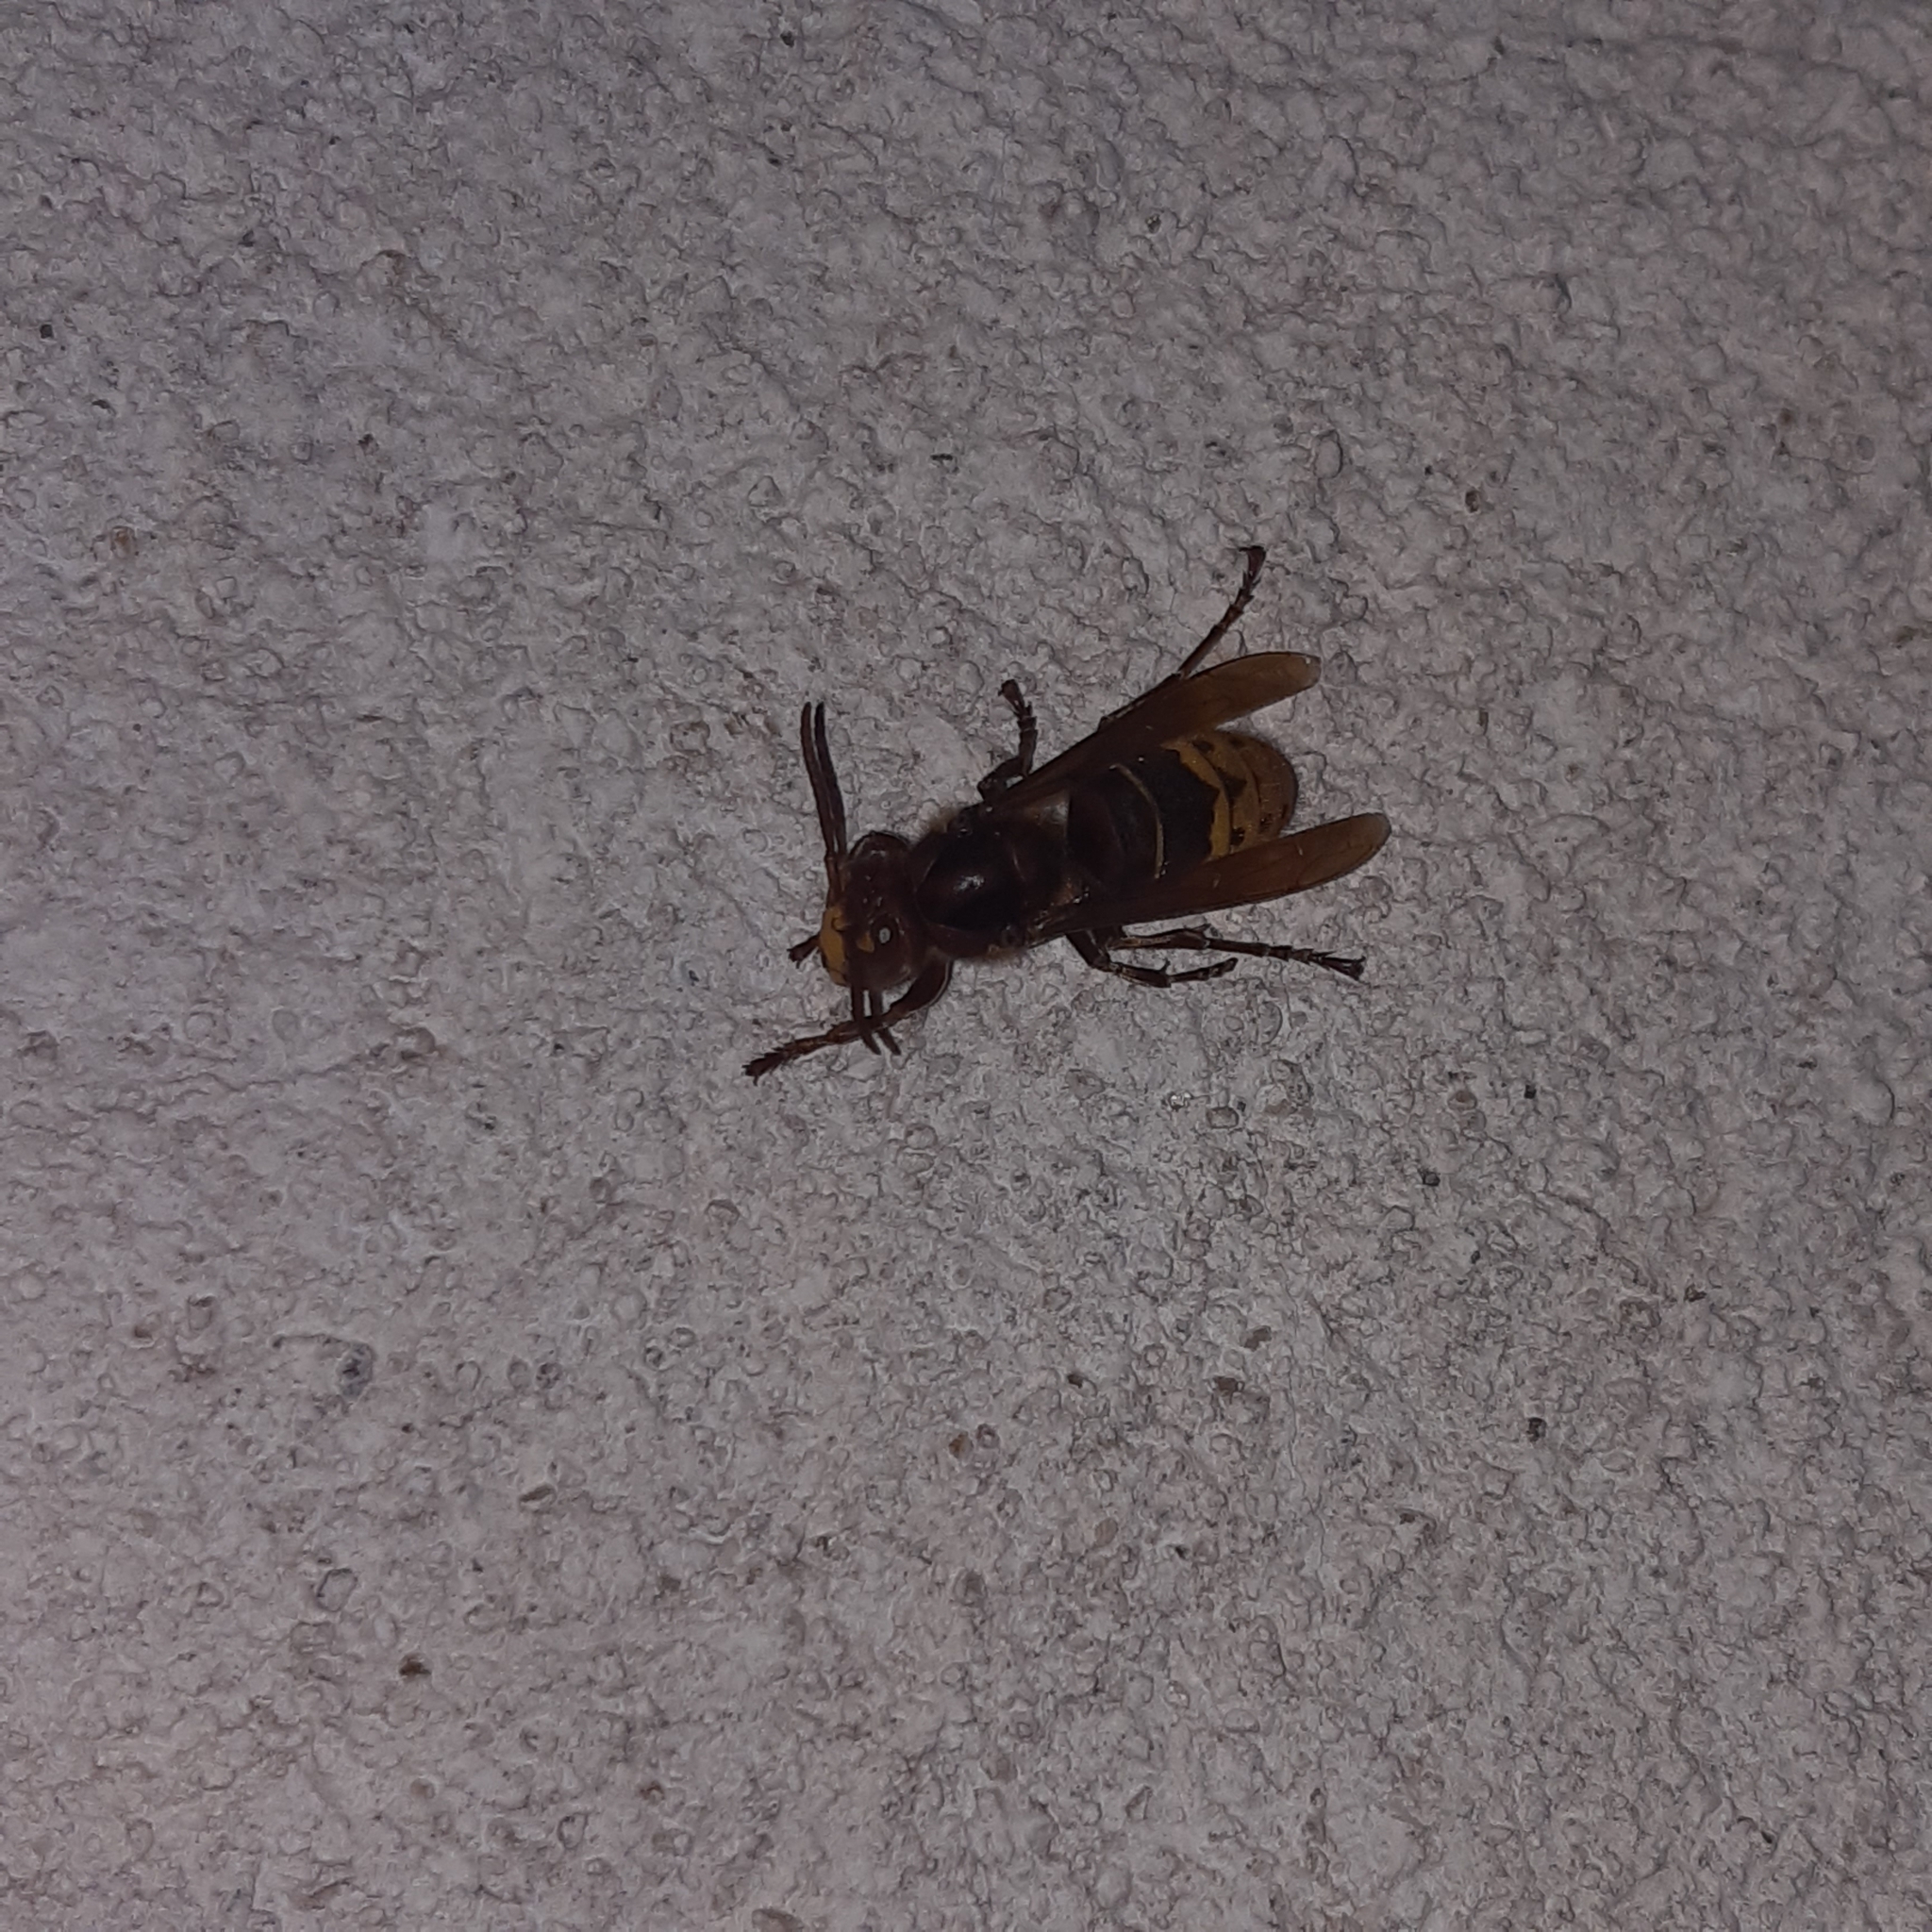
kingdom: Animalia
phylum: Arthropoda
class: Insecta
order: Hymenoptera
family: Vespidae
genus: Vespa
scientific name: Vespa crabro
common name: Hornet
